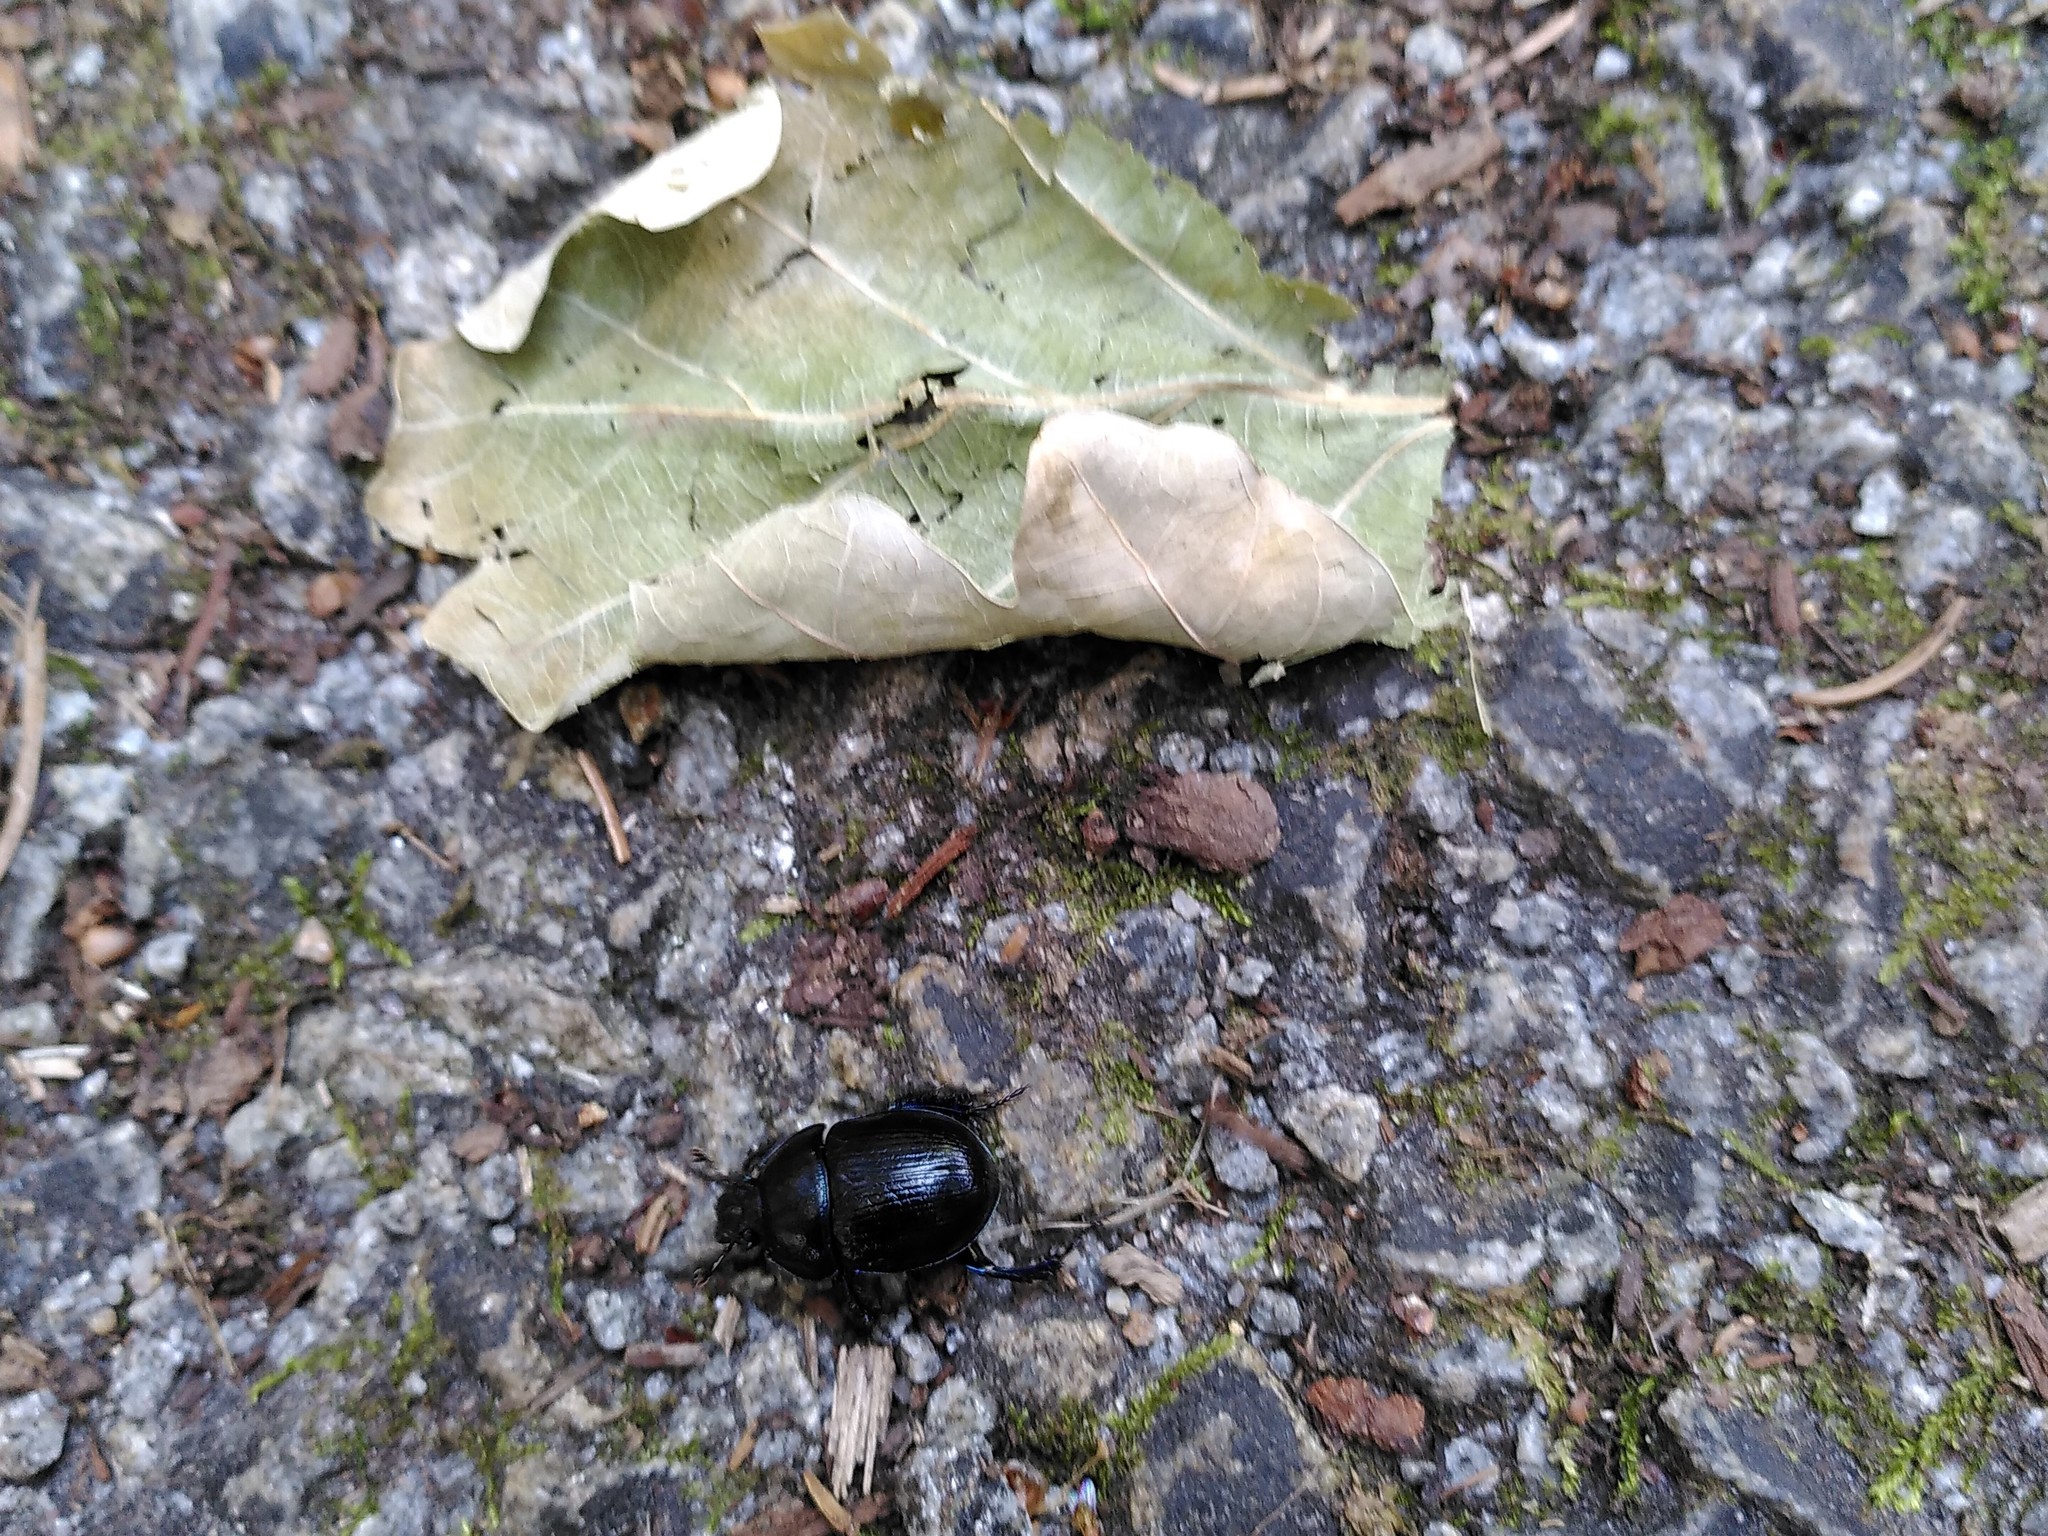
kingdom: Animalia
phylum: Arthropoda
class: Insecta
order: Coleoptera
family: Geotrupidae
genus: Anoplotrupes
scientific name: Anoplotrupes stercorosus
